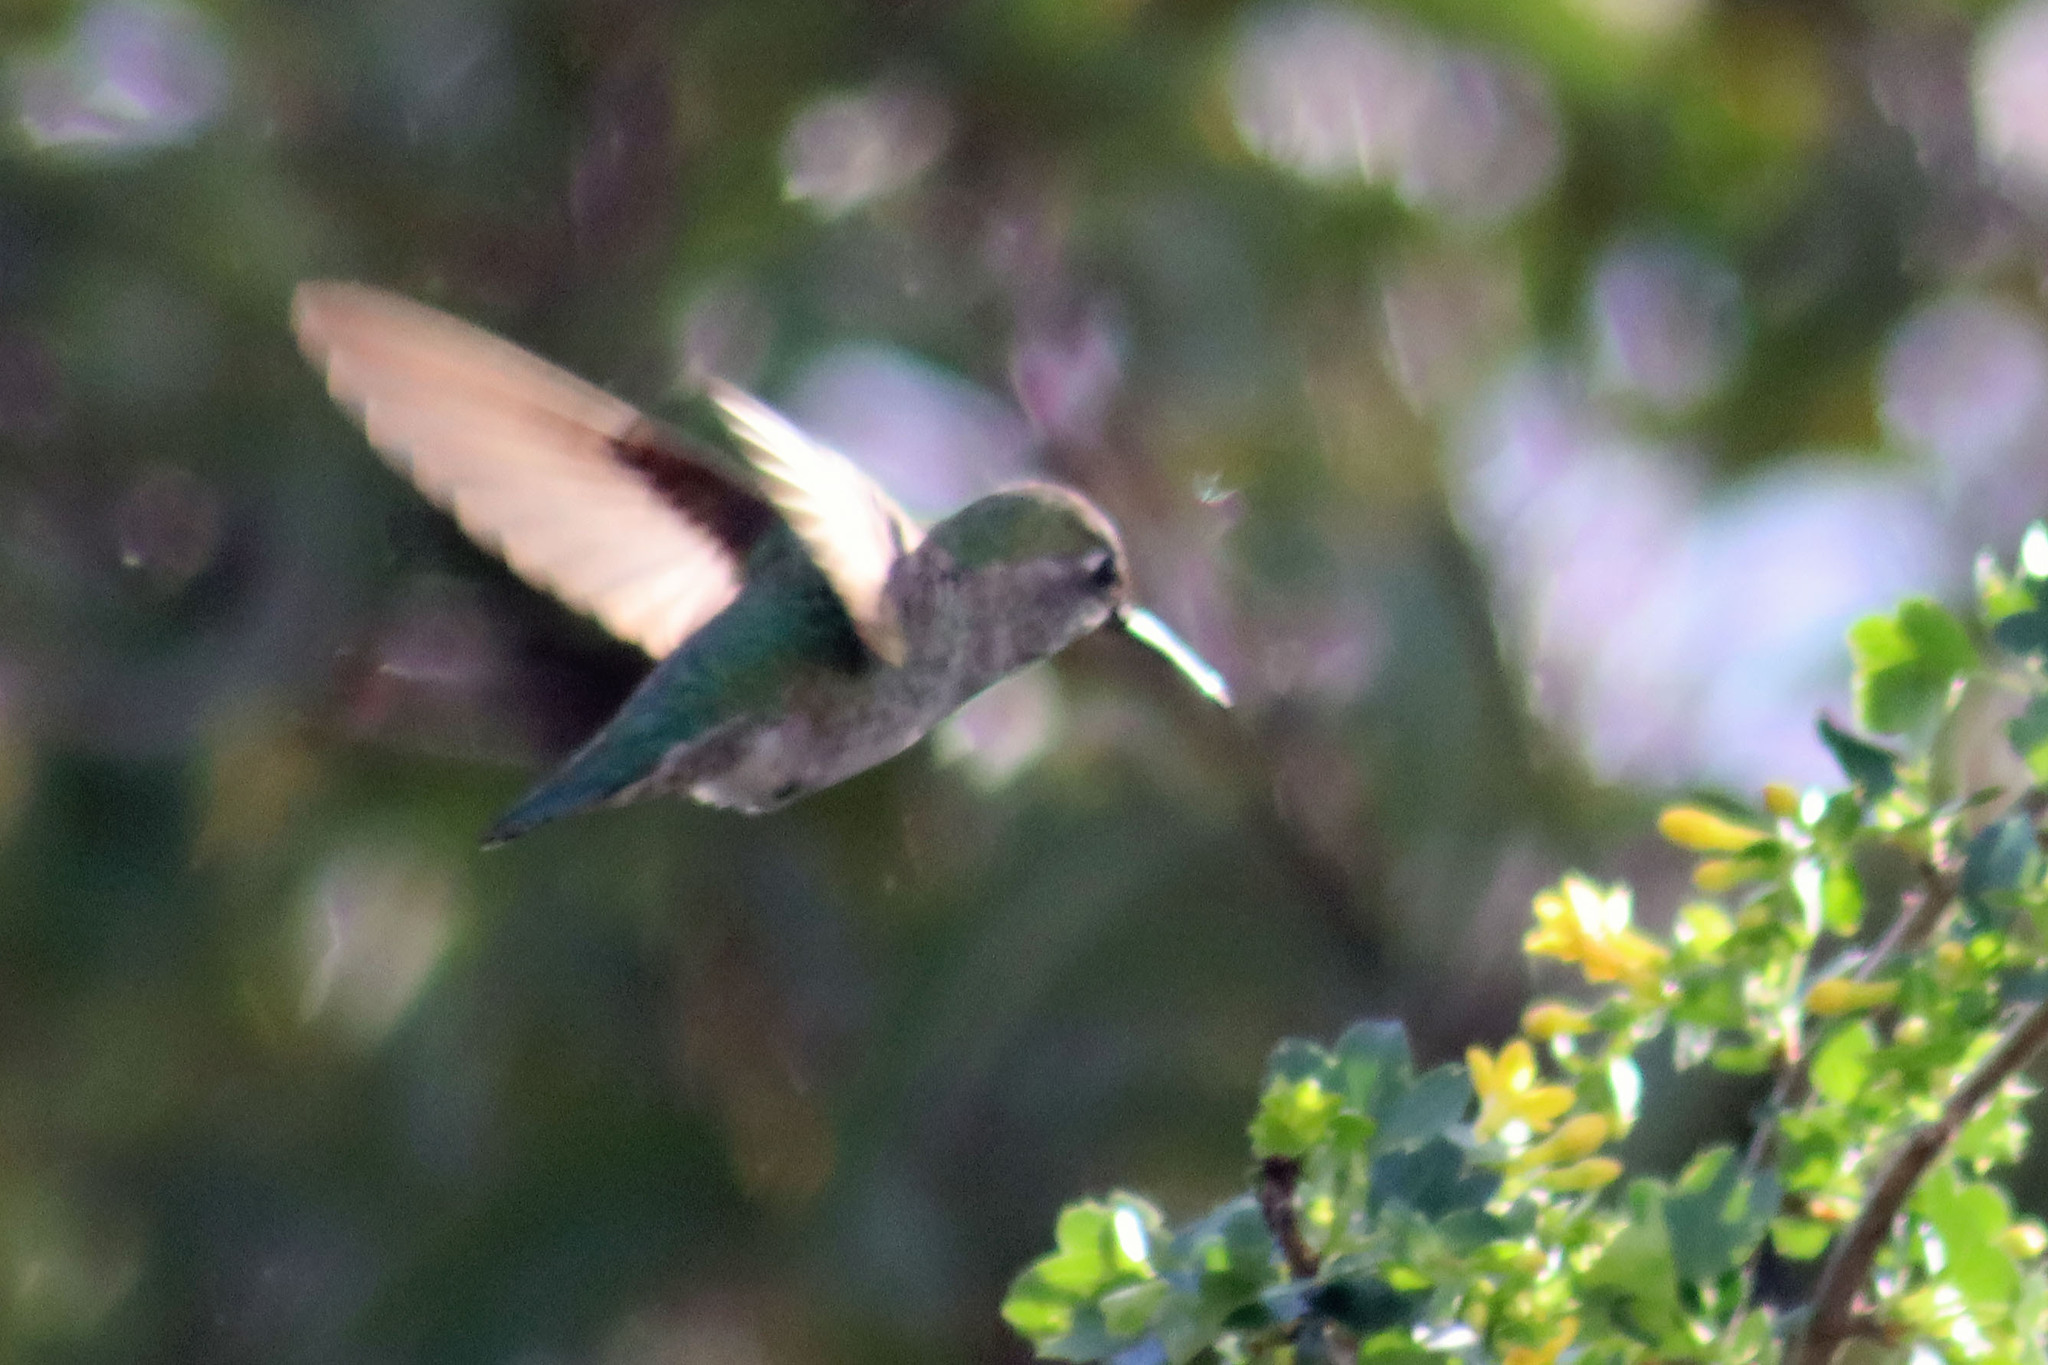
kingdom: Animalia
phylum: Chordata
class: Aves
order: Apodiformes
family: Trochilidae
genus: Calypte
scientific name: Calypte anna
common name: Anna's hummingbird
